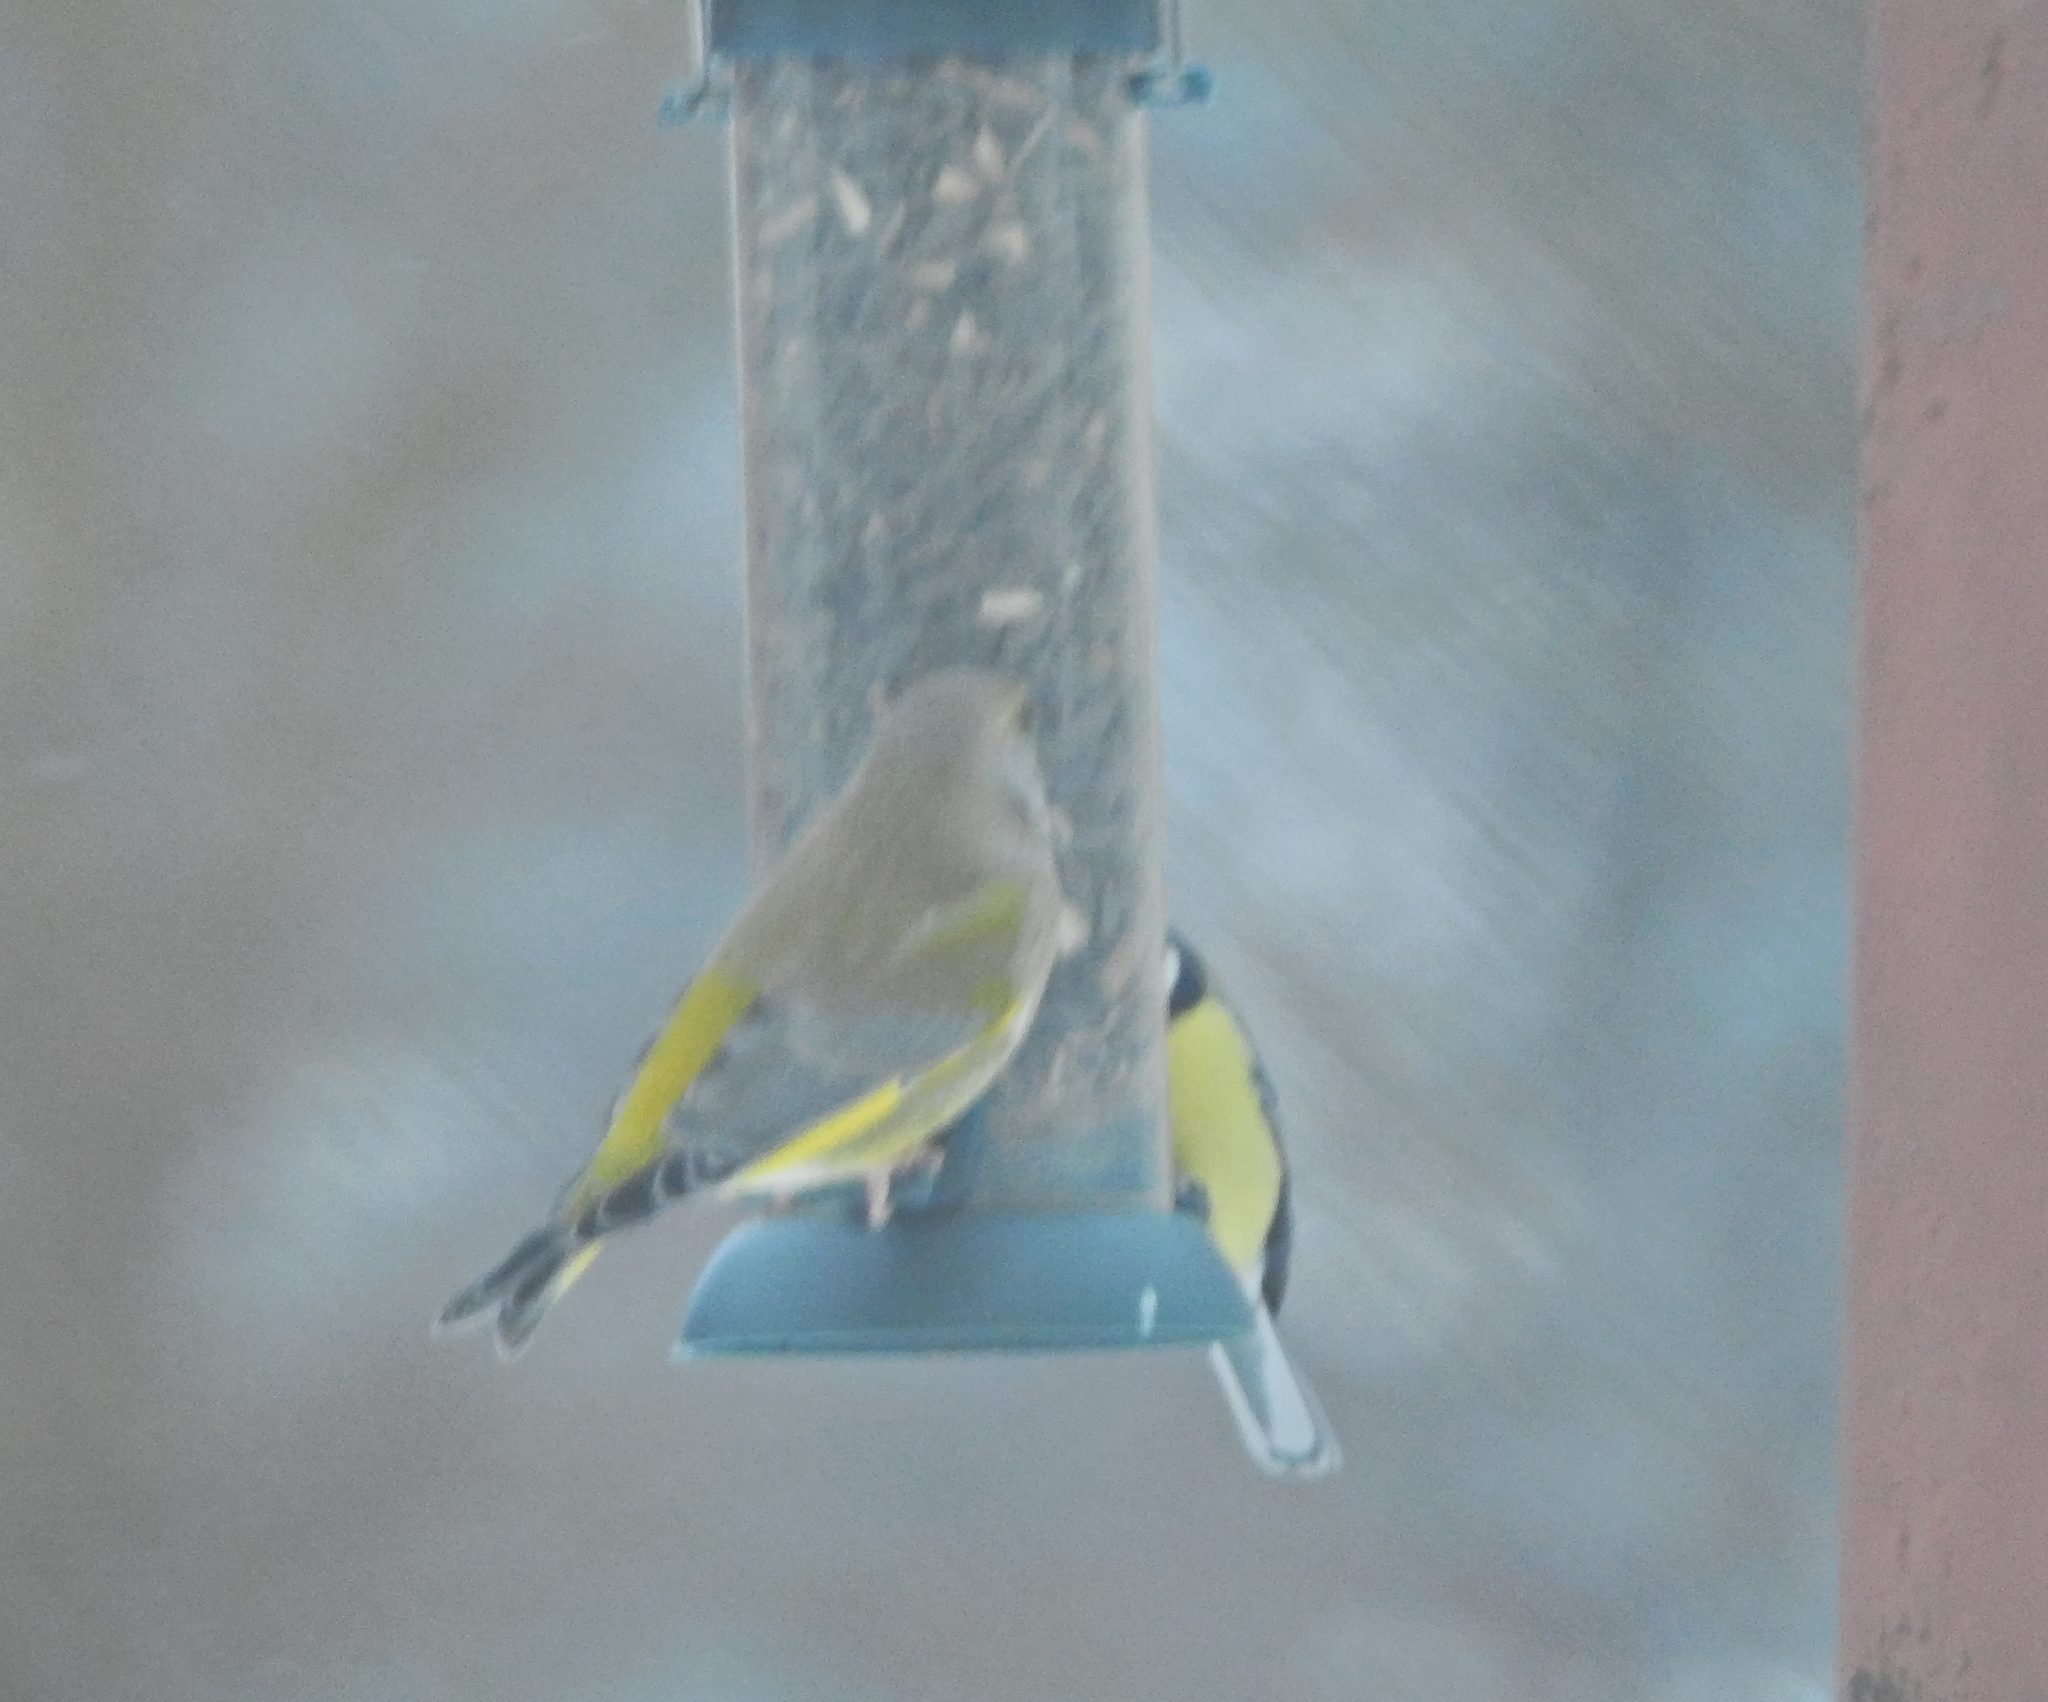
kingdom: Animalia
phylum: Chordata
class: Aves
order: Passeriformes
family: Paridae
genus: Parus
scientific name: Parus major
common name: Great tit
